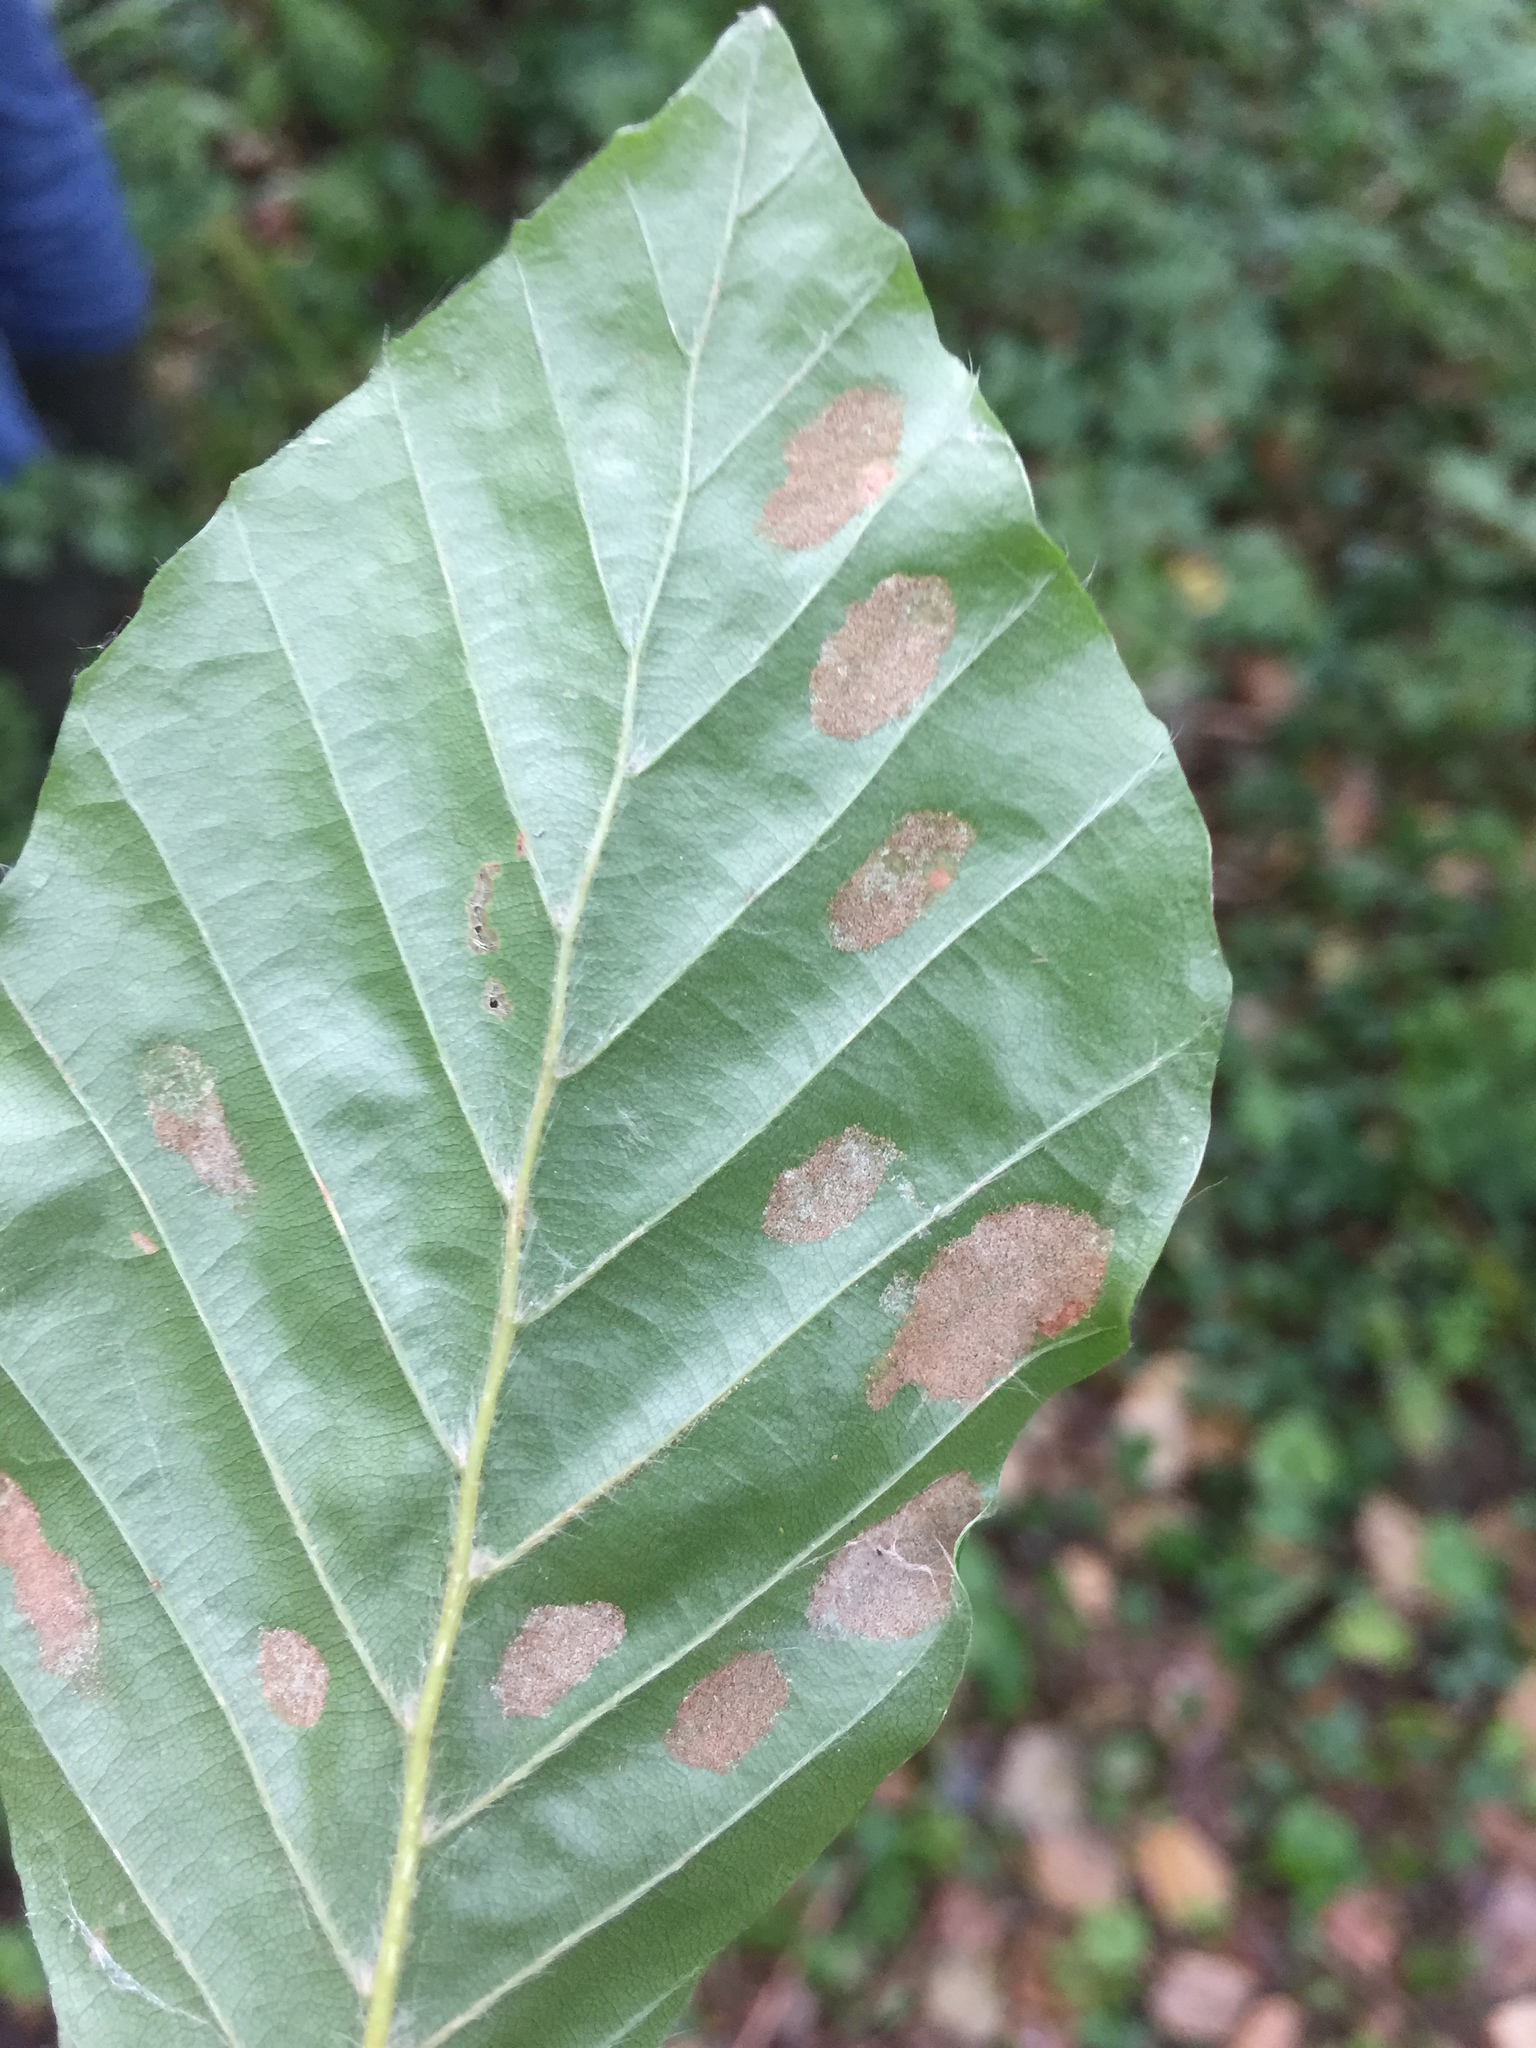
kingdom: Animalia
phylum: Arthropoda
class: Arachnida
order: Trombidiformes
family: Eriophyidae
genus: Aceria
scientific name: Aceria nervisequa
